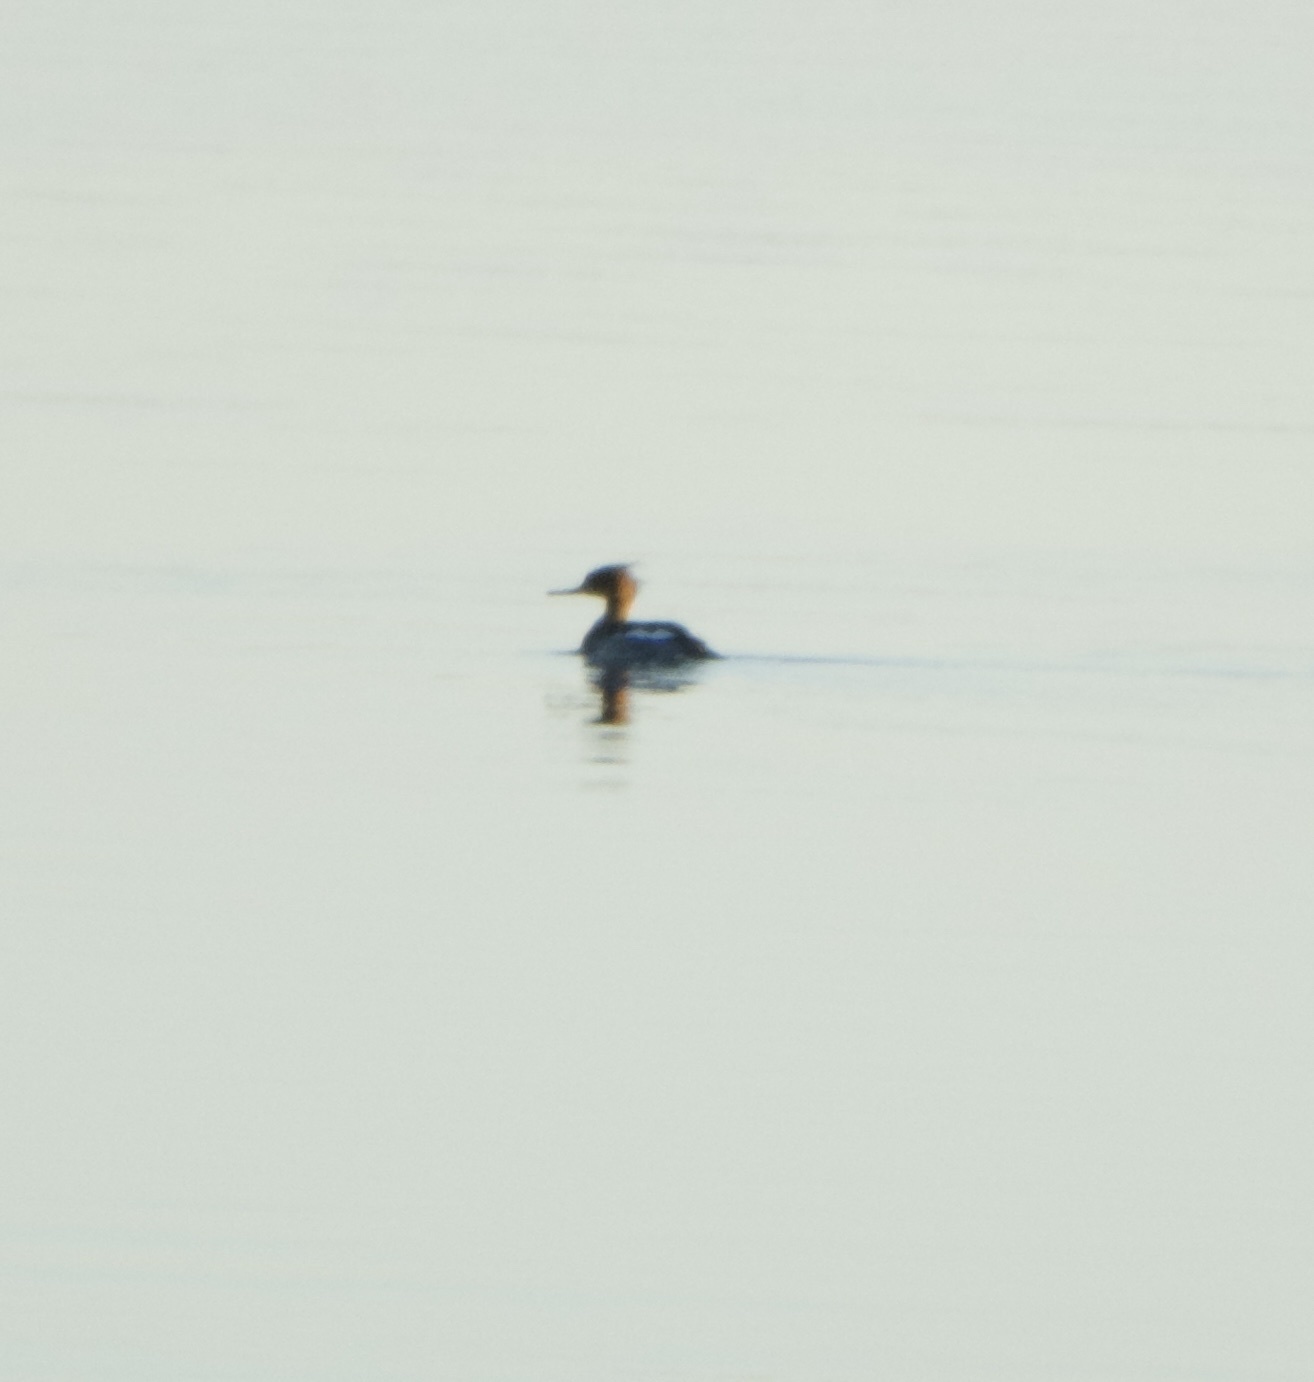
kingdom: Animalia
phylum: Chordata
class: Aves
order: Anseriformes
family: Anatidae
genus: Mergus
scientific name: Mergus serrator
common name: Red-breasted merganser
